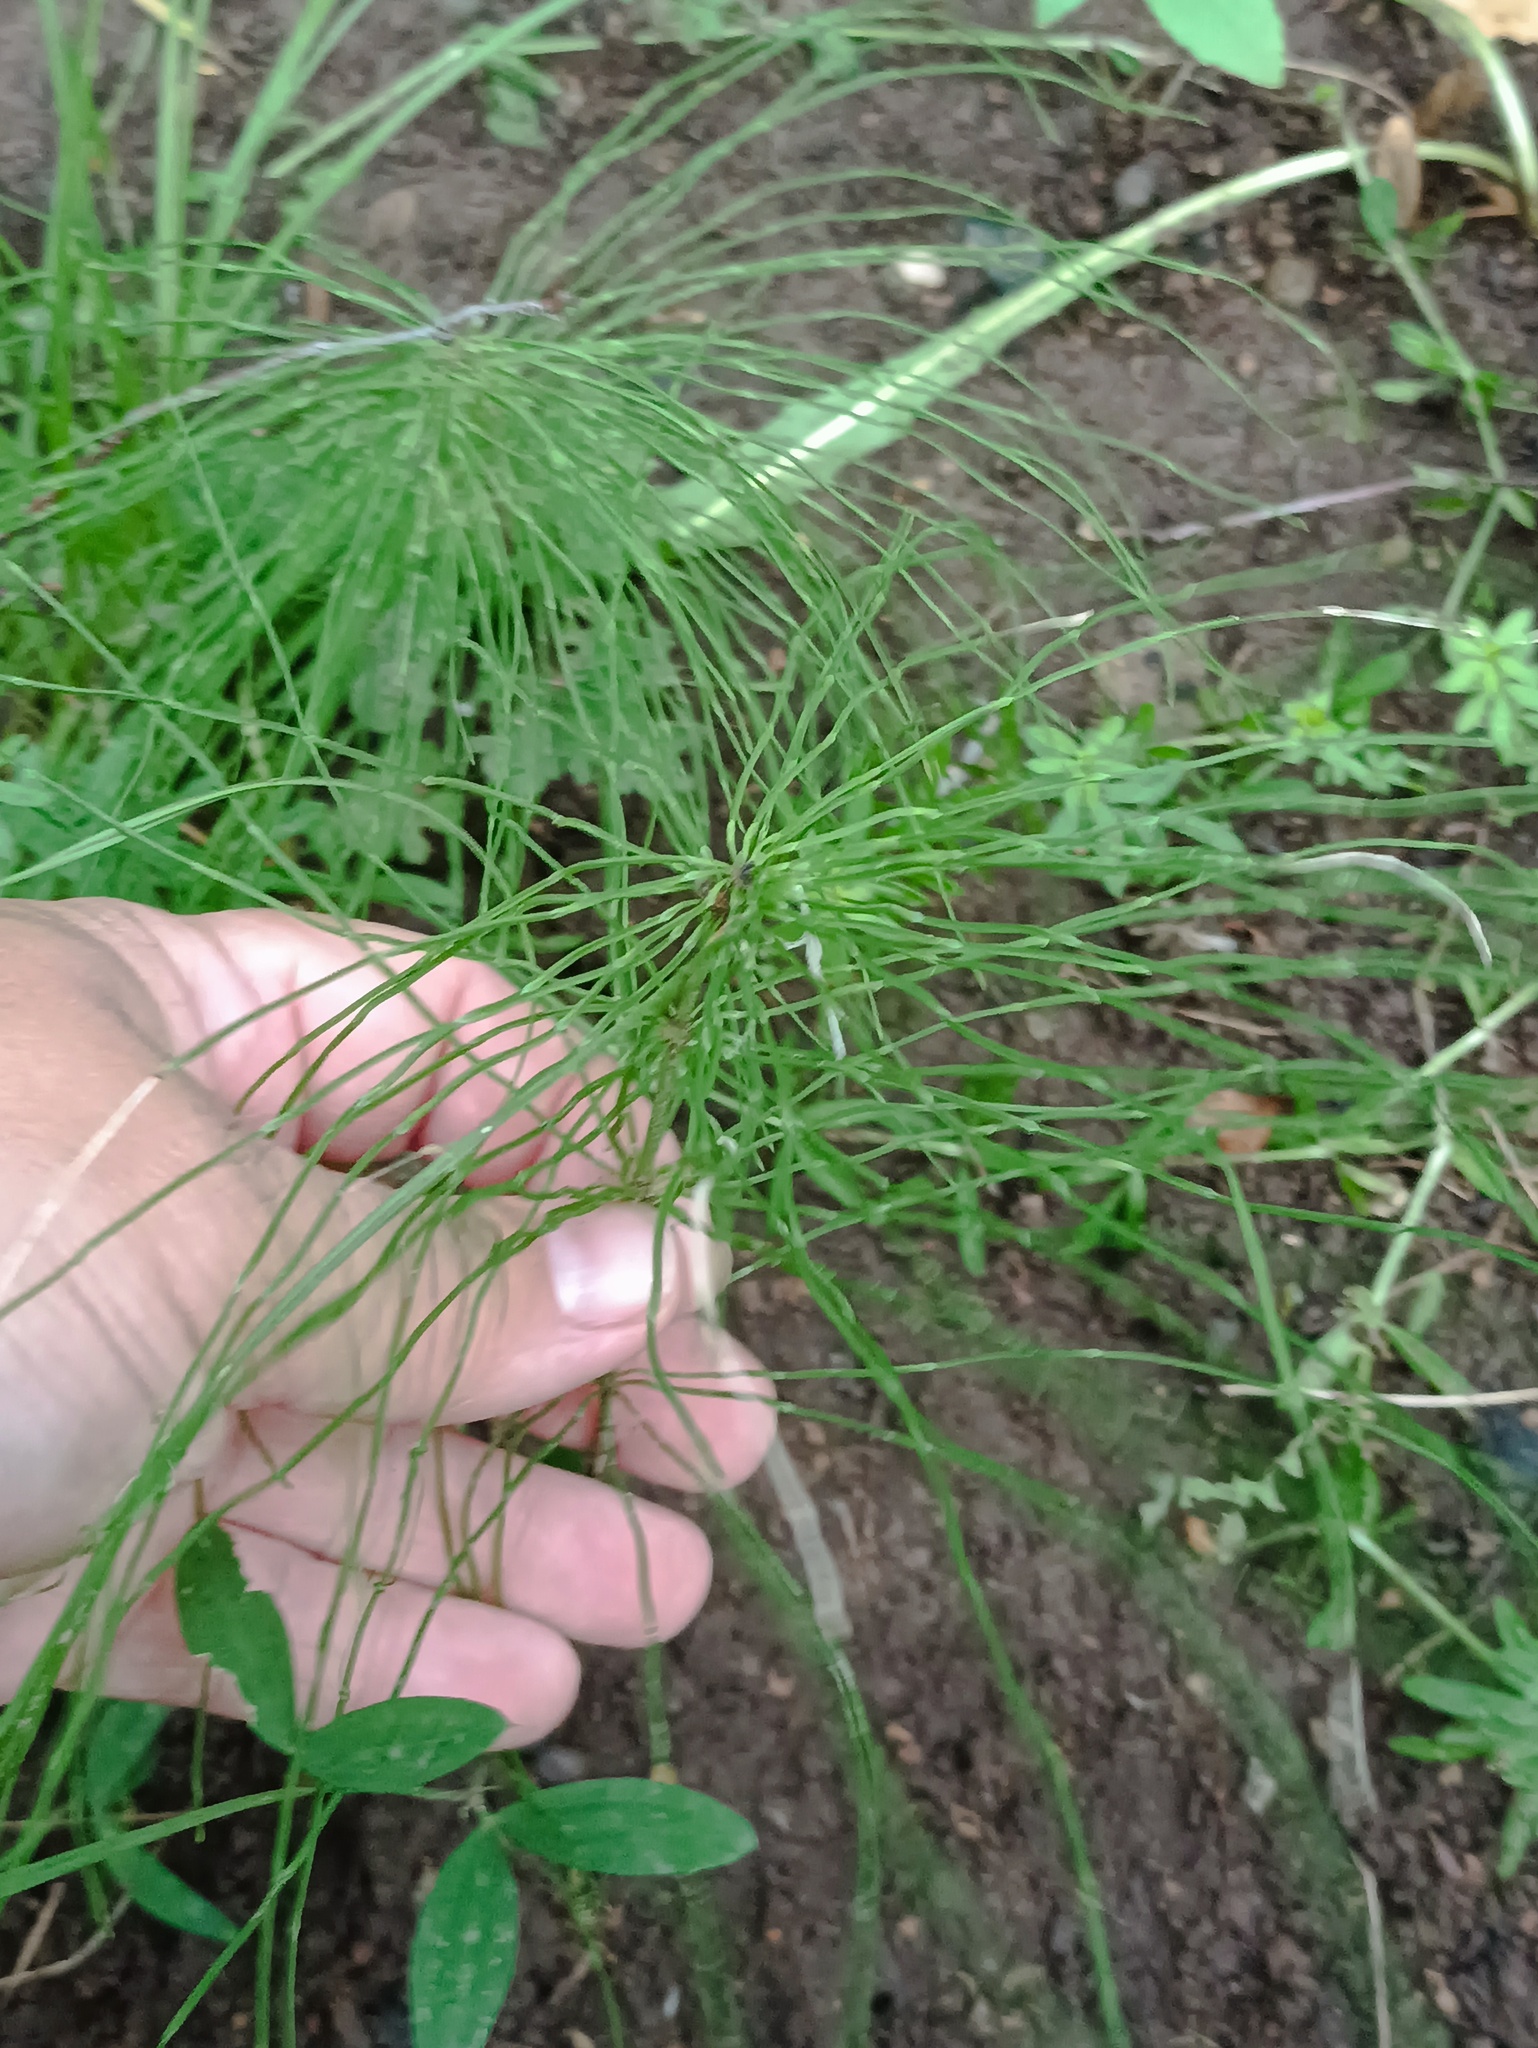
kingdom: Plantae
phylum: Tracheophyta
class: Polypodiopsida
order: Equisetales
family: Equisetaceae
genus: Equisetum
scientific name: Equisetum pratense
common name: Meadow horsetail
